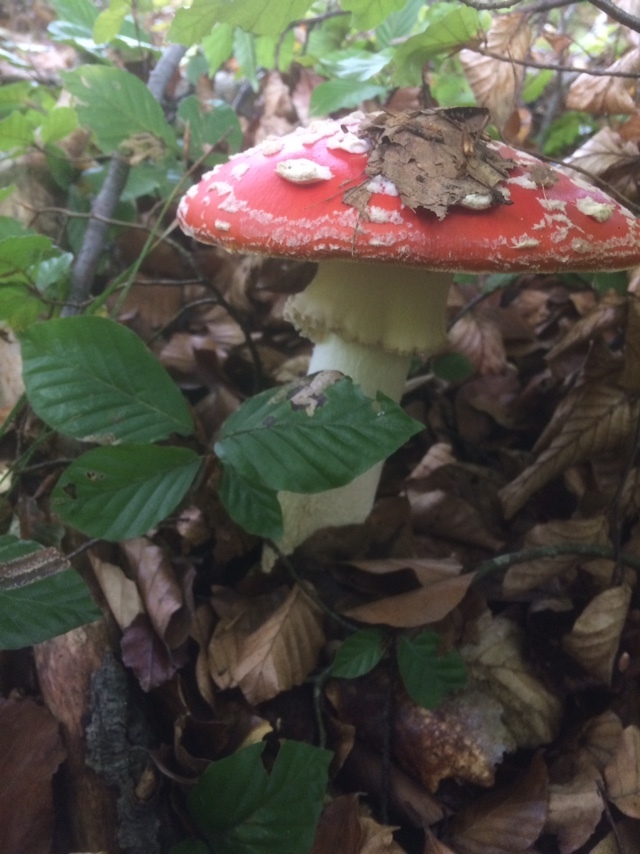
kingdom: Fungi
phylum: Basidiomycota
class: Agaricomycetes
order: Agaricales
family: Amanitaceae
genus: Amanita
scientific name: Amanita muscaria
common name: Fly agaric
